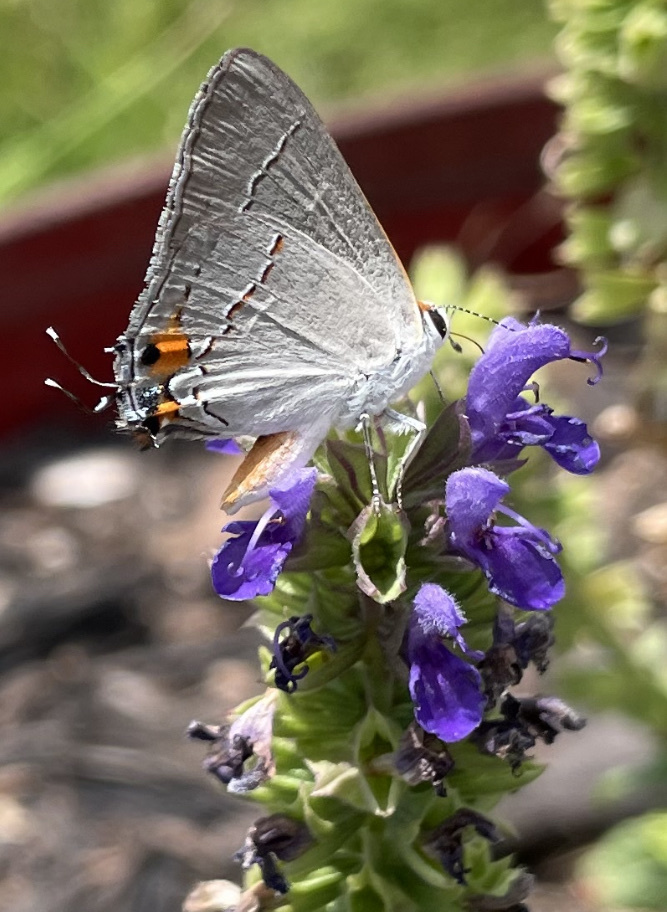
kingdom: Animalia
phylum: Arthropoda
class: Insecta
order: Lepidoptera
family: Lycaenidae
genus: Strymon
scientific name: Strymon melinus
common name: Gray hairstreak
